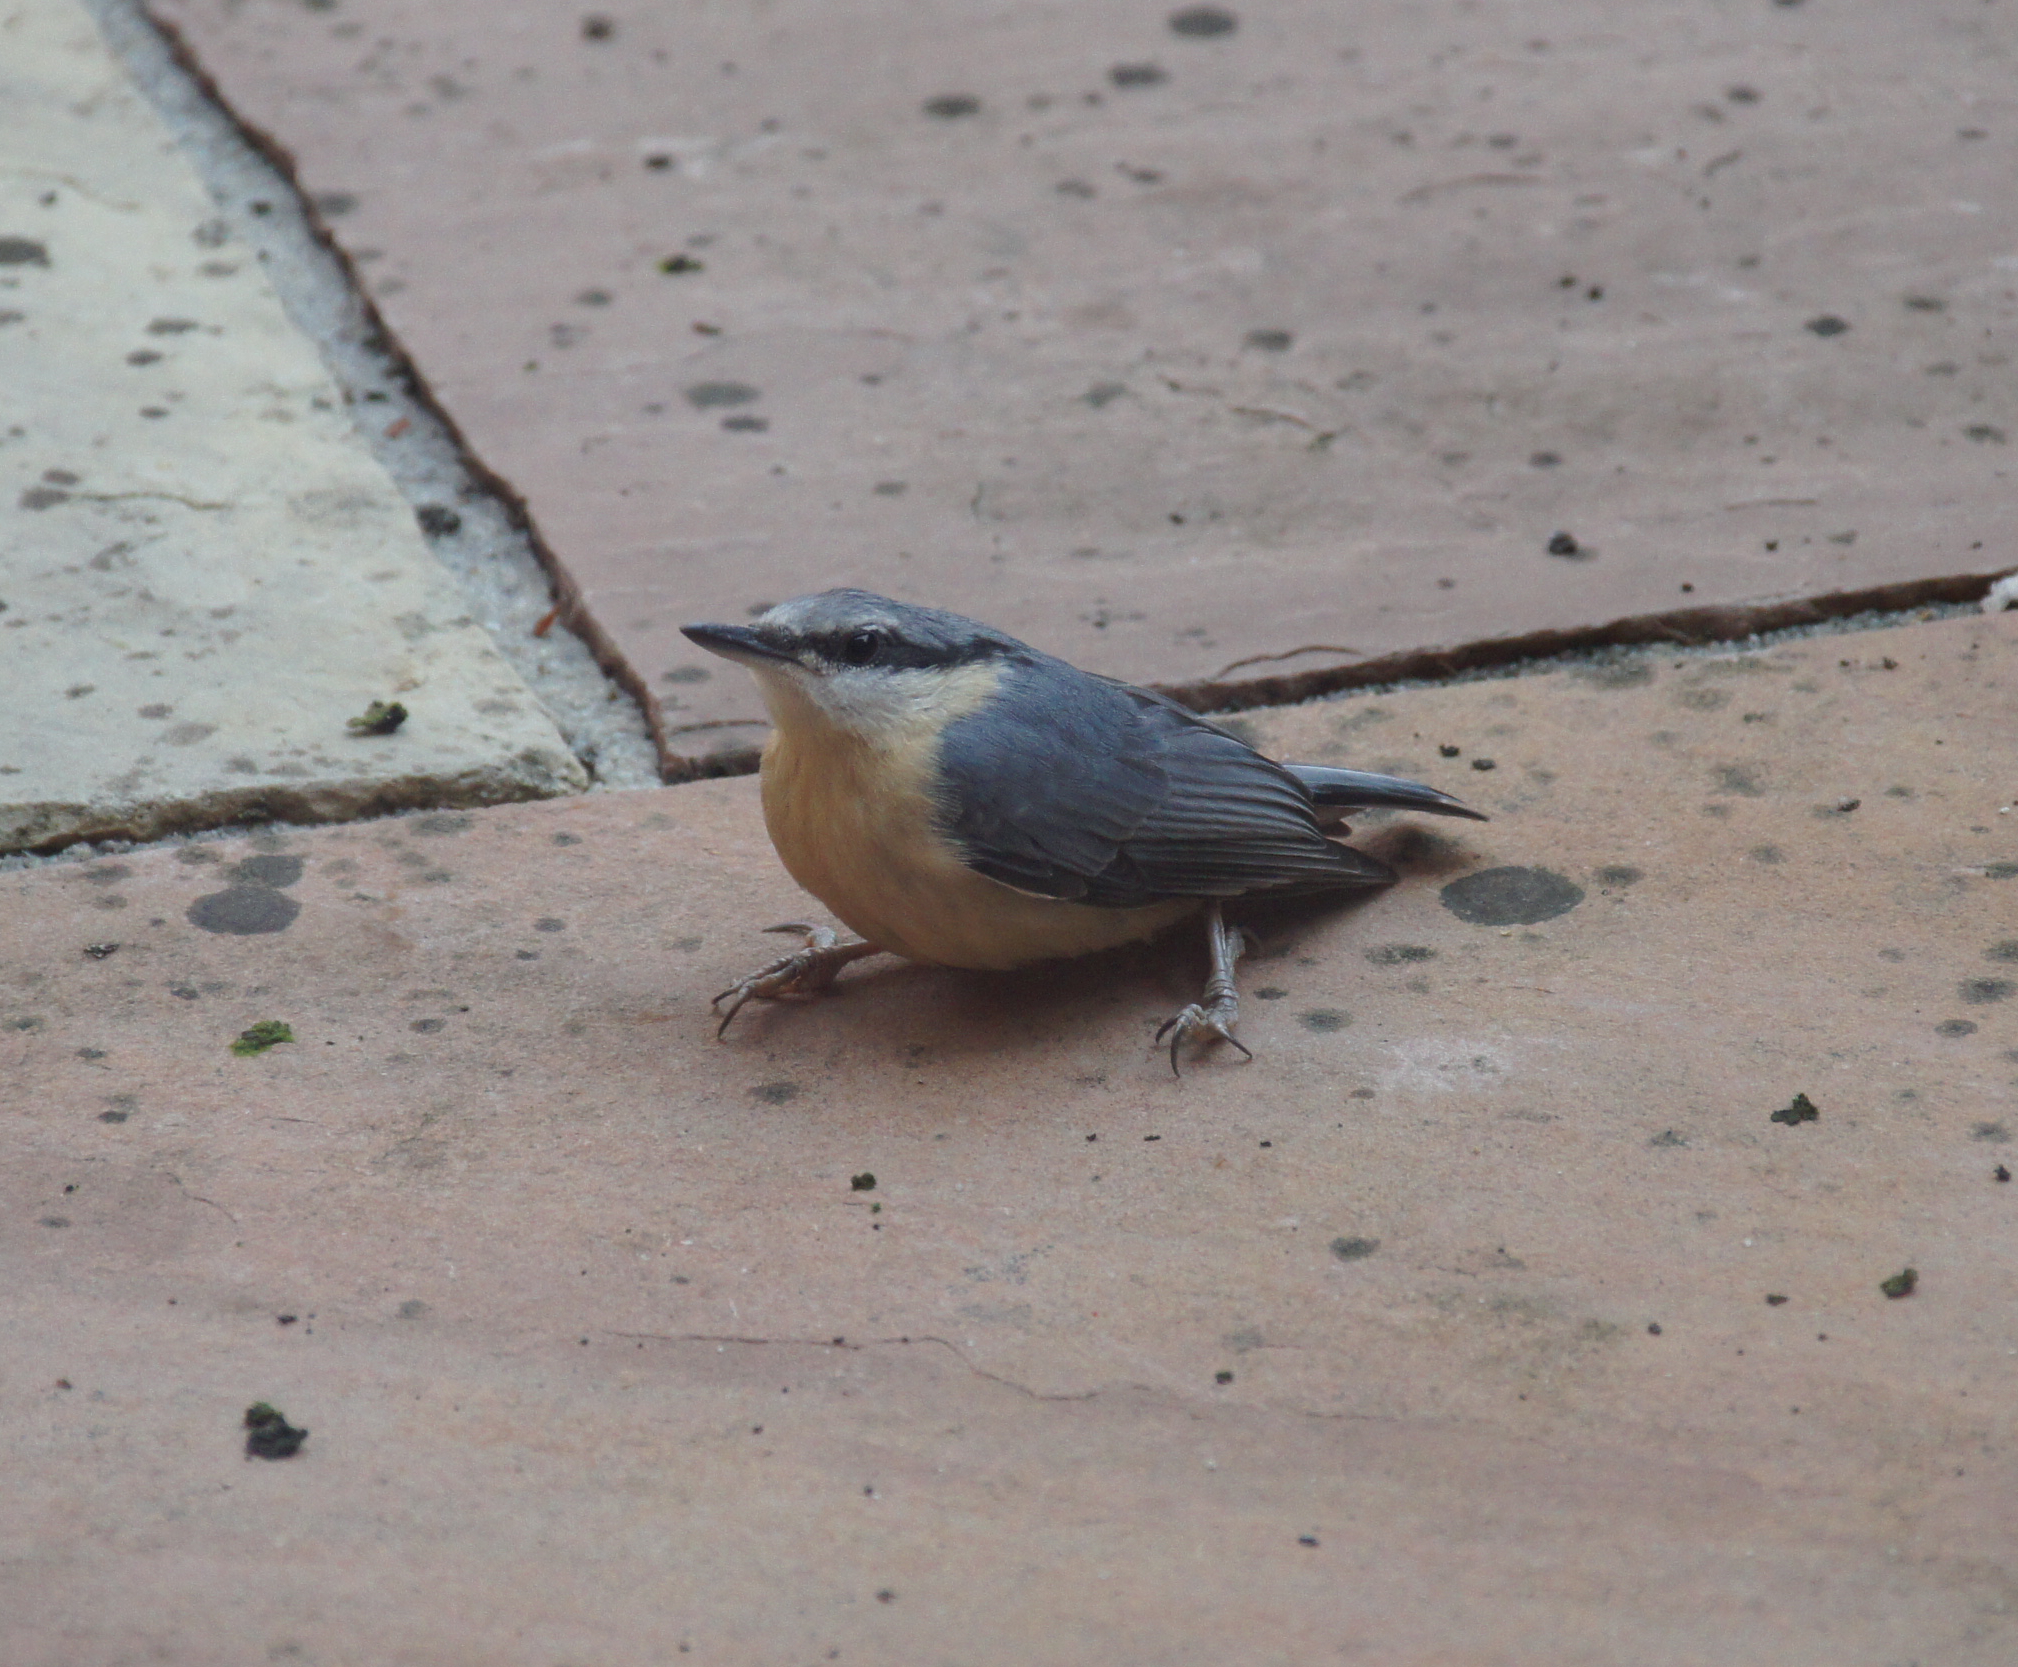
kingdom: Animalia
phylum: Chordata
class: Aves
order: Passeriformes
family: Sittidae
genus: Sitta
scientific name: Sitta europaea
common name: Eurasian nuthatch
